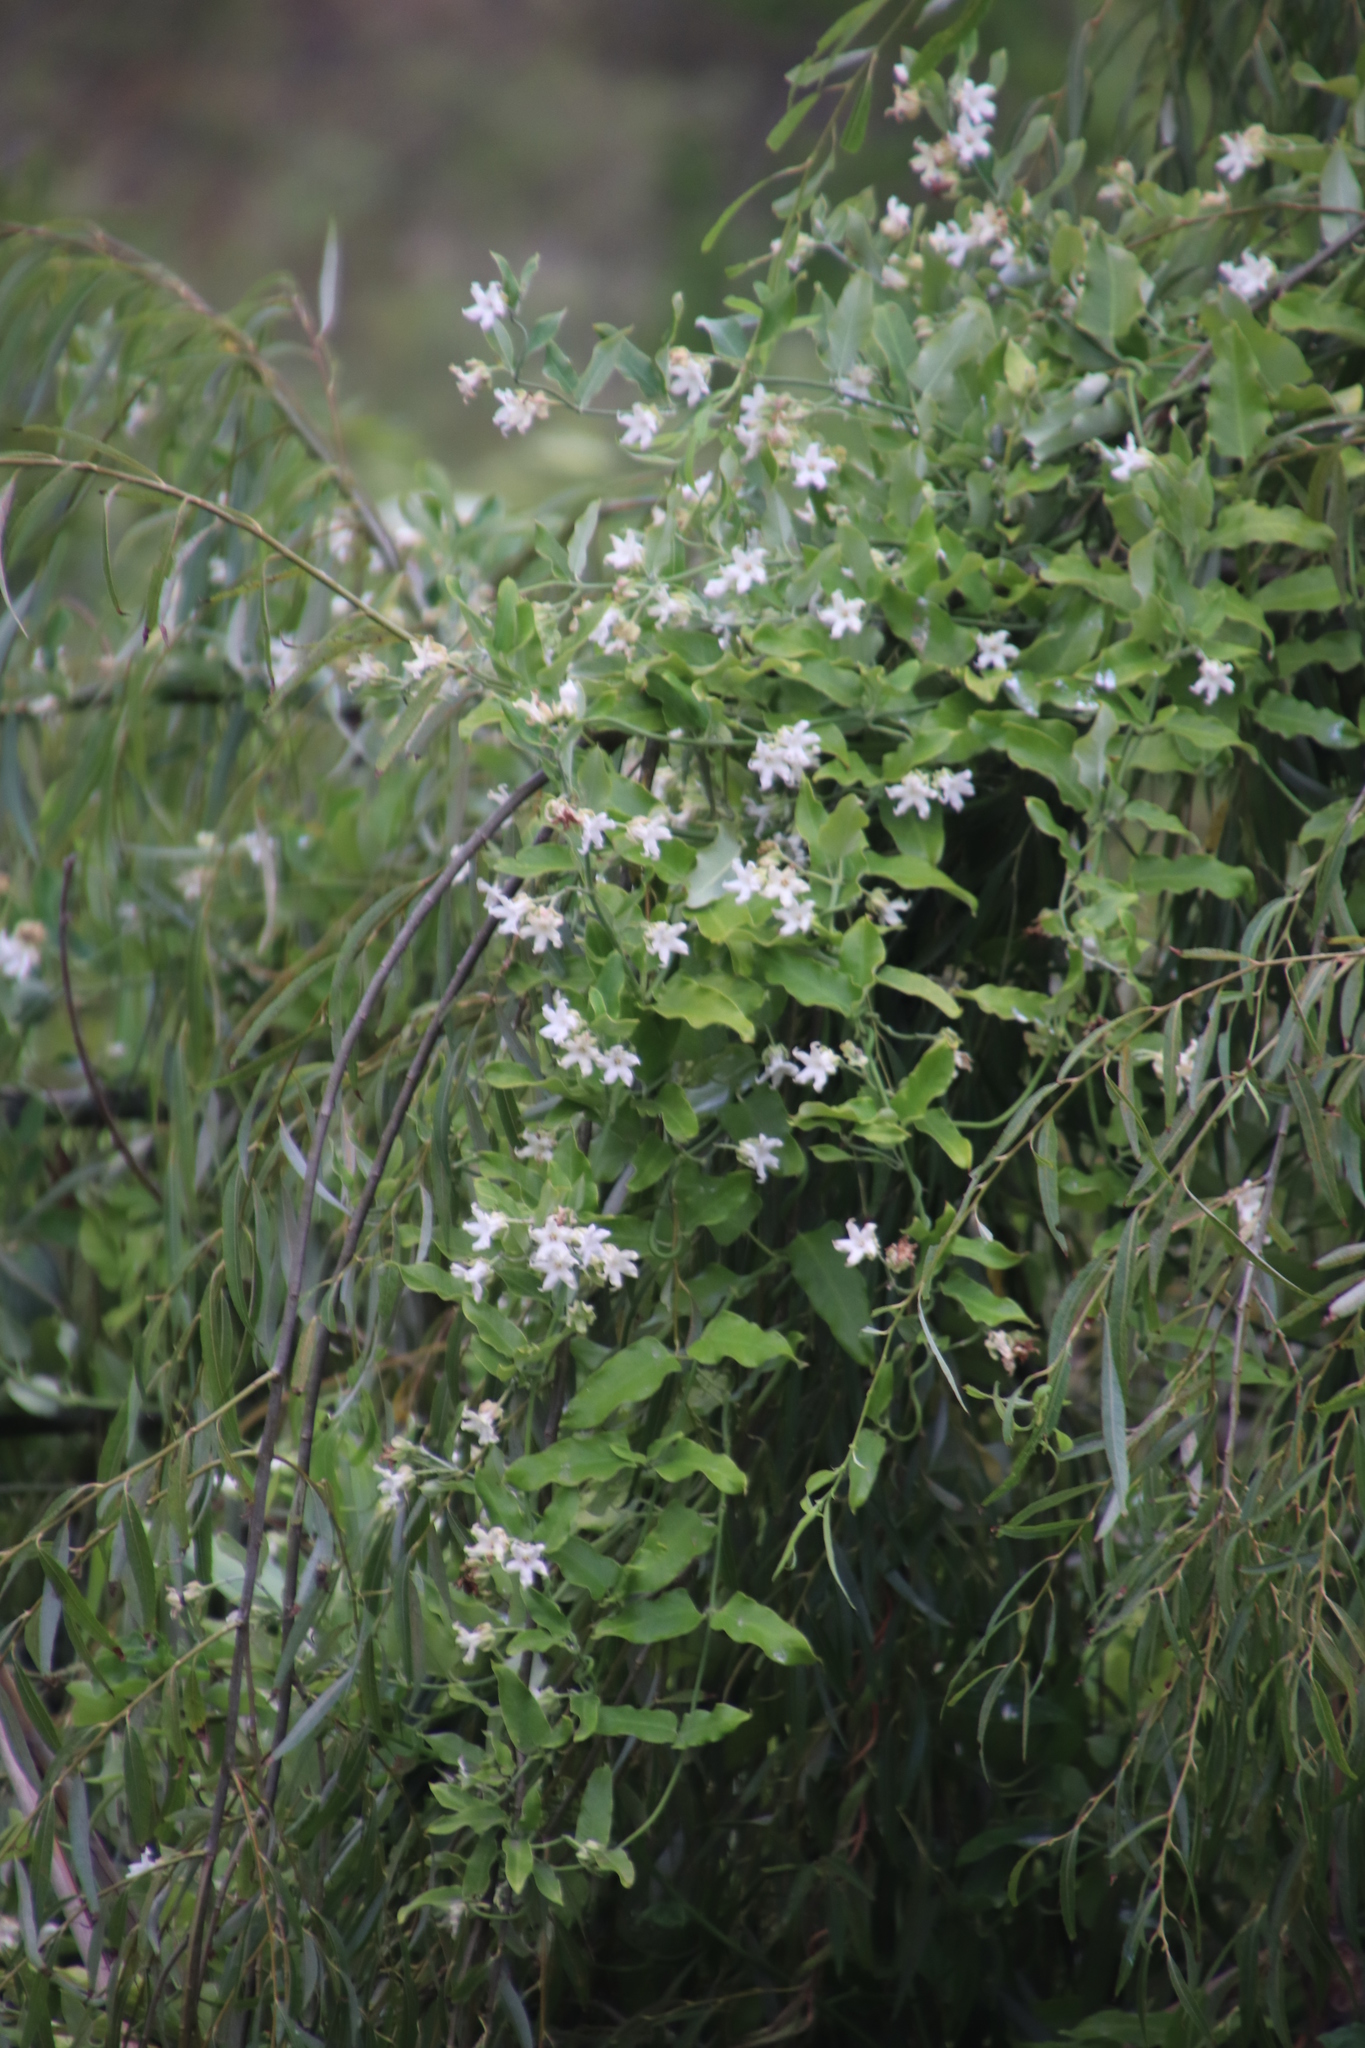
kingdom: Plantae
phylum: Tracheophyta
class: Magnoliopsida
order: Gentianales
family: Apocynaceae
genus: Araujia
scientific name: Araujia sericifera
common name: White bladderflower
